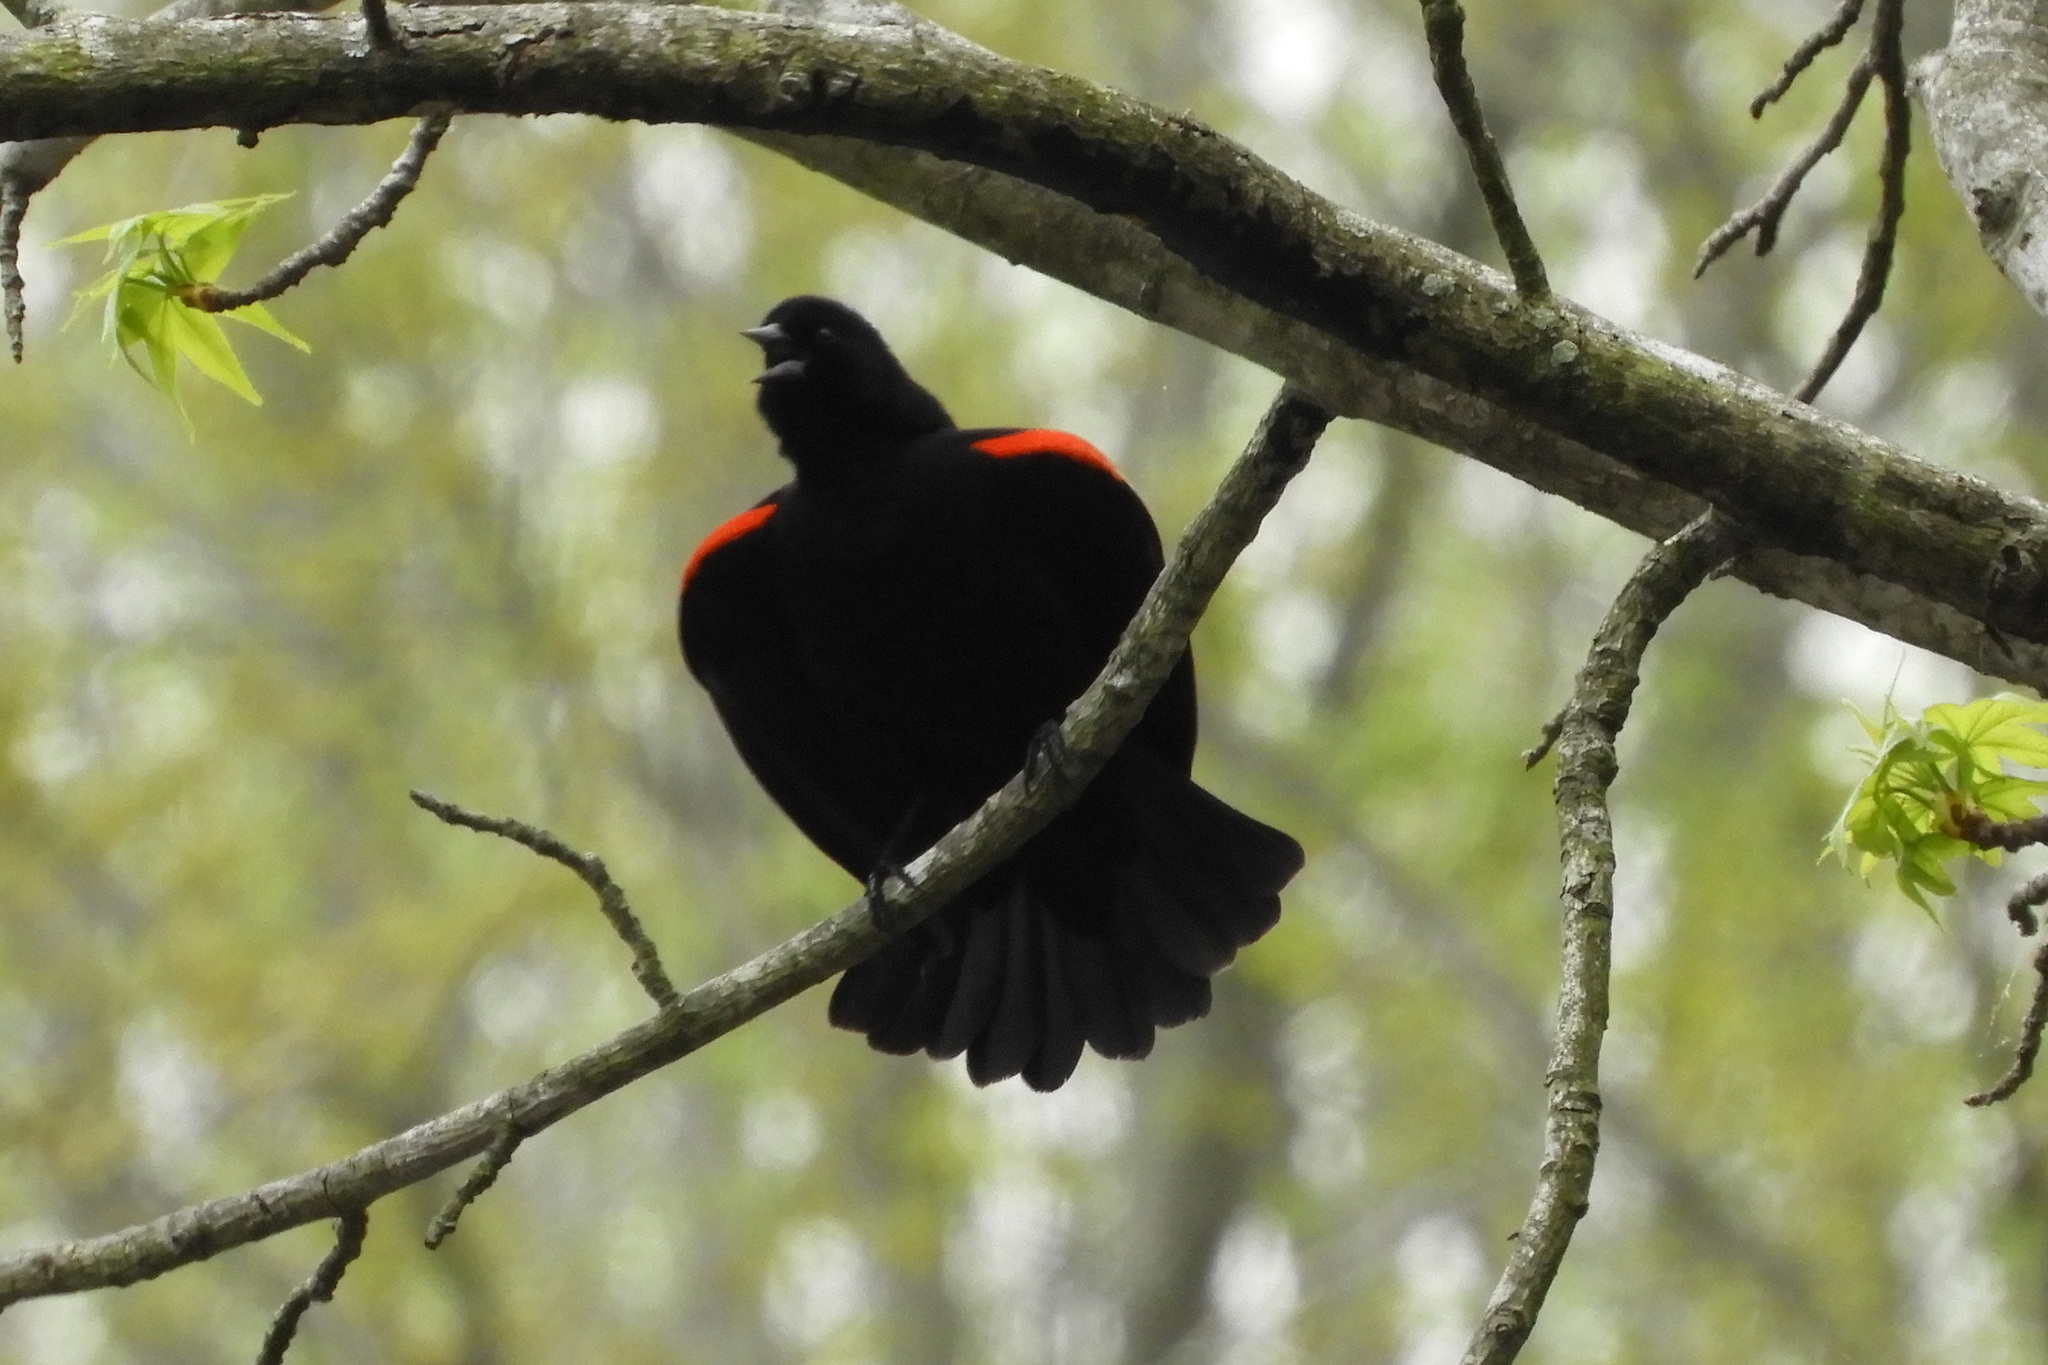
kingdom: Animalia
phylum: Chordata
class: Aves
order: Passeriformes
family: Icteridae
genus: Agelaius
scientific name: Agelaius phoeniceus
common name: Red-winged blackbird
